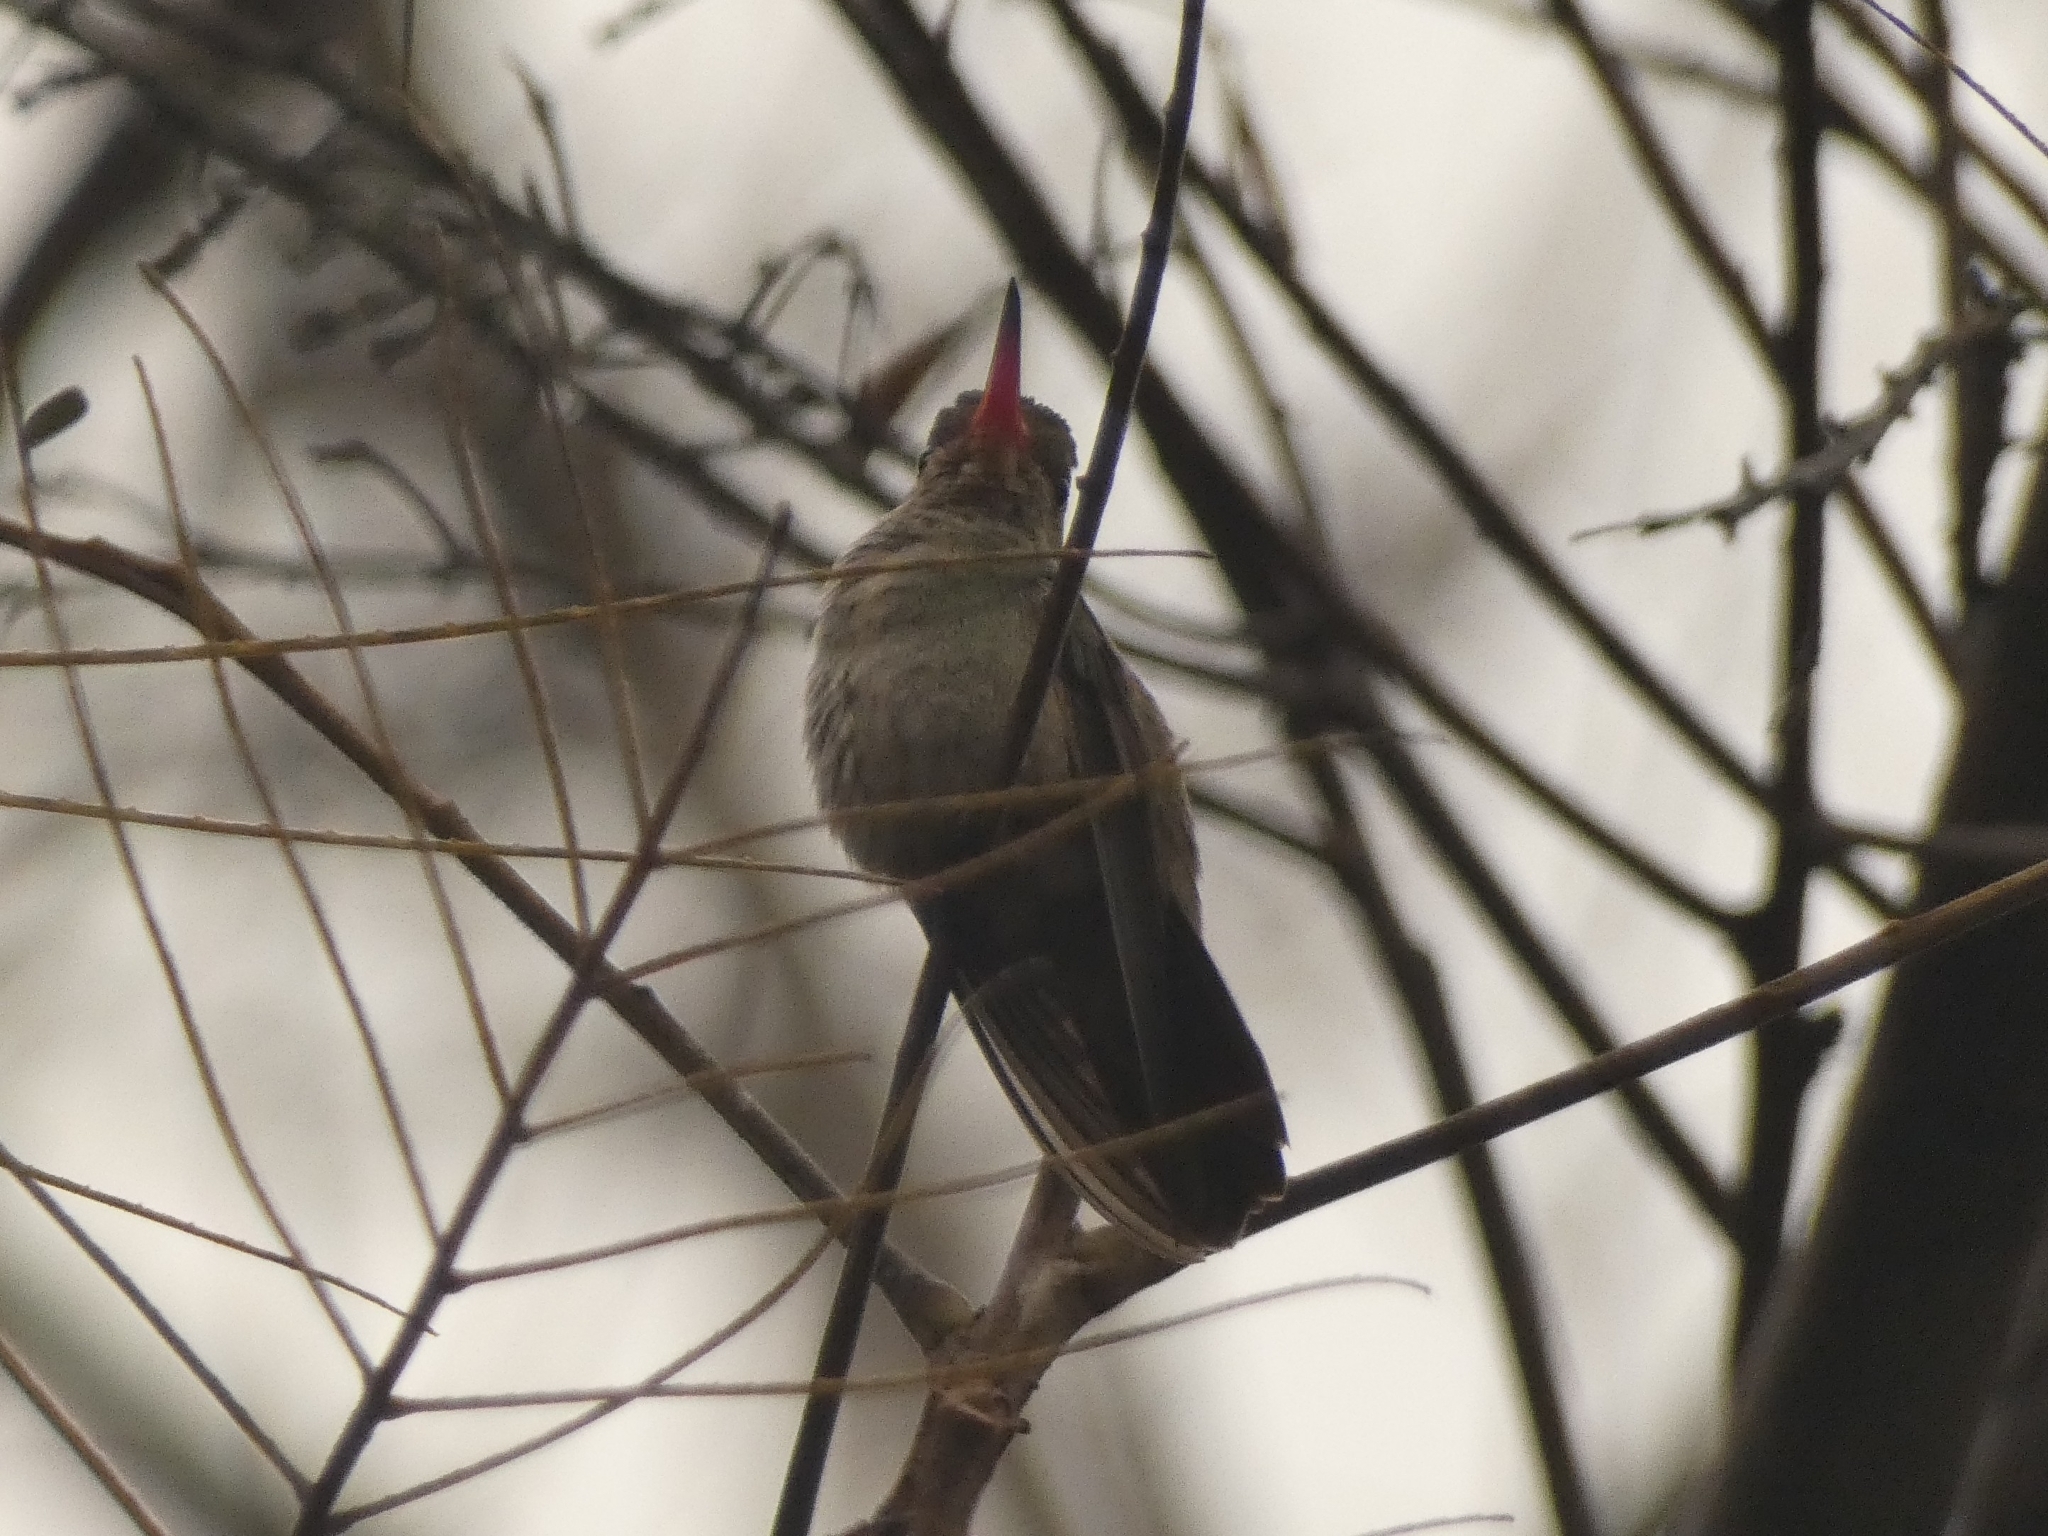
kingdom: Animalia
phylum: Chordata
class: Aves
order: Apodiformes
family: Trochilidae
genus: Hylocharis
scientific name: Hylocharis chrysura
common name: Gilded sapphire
